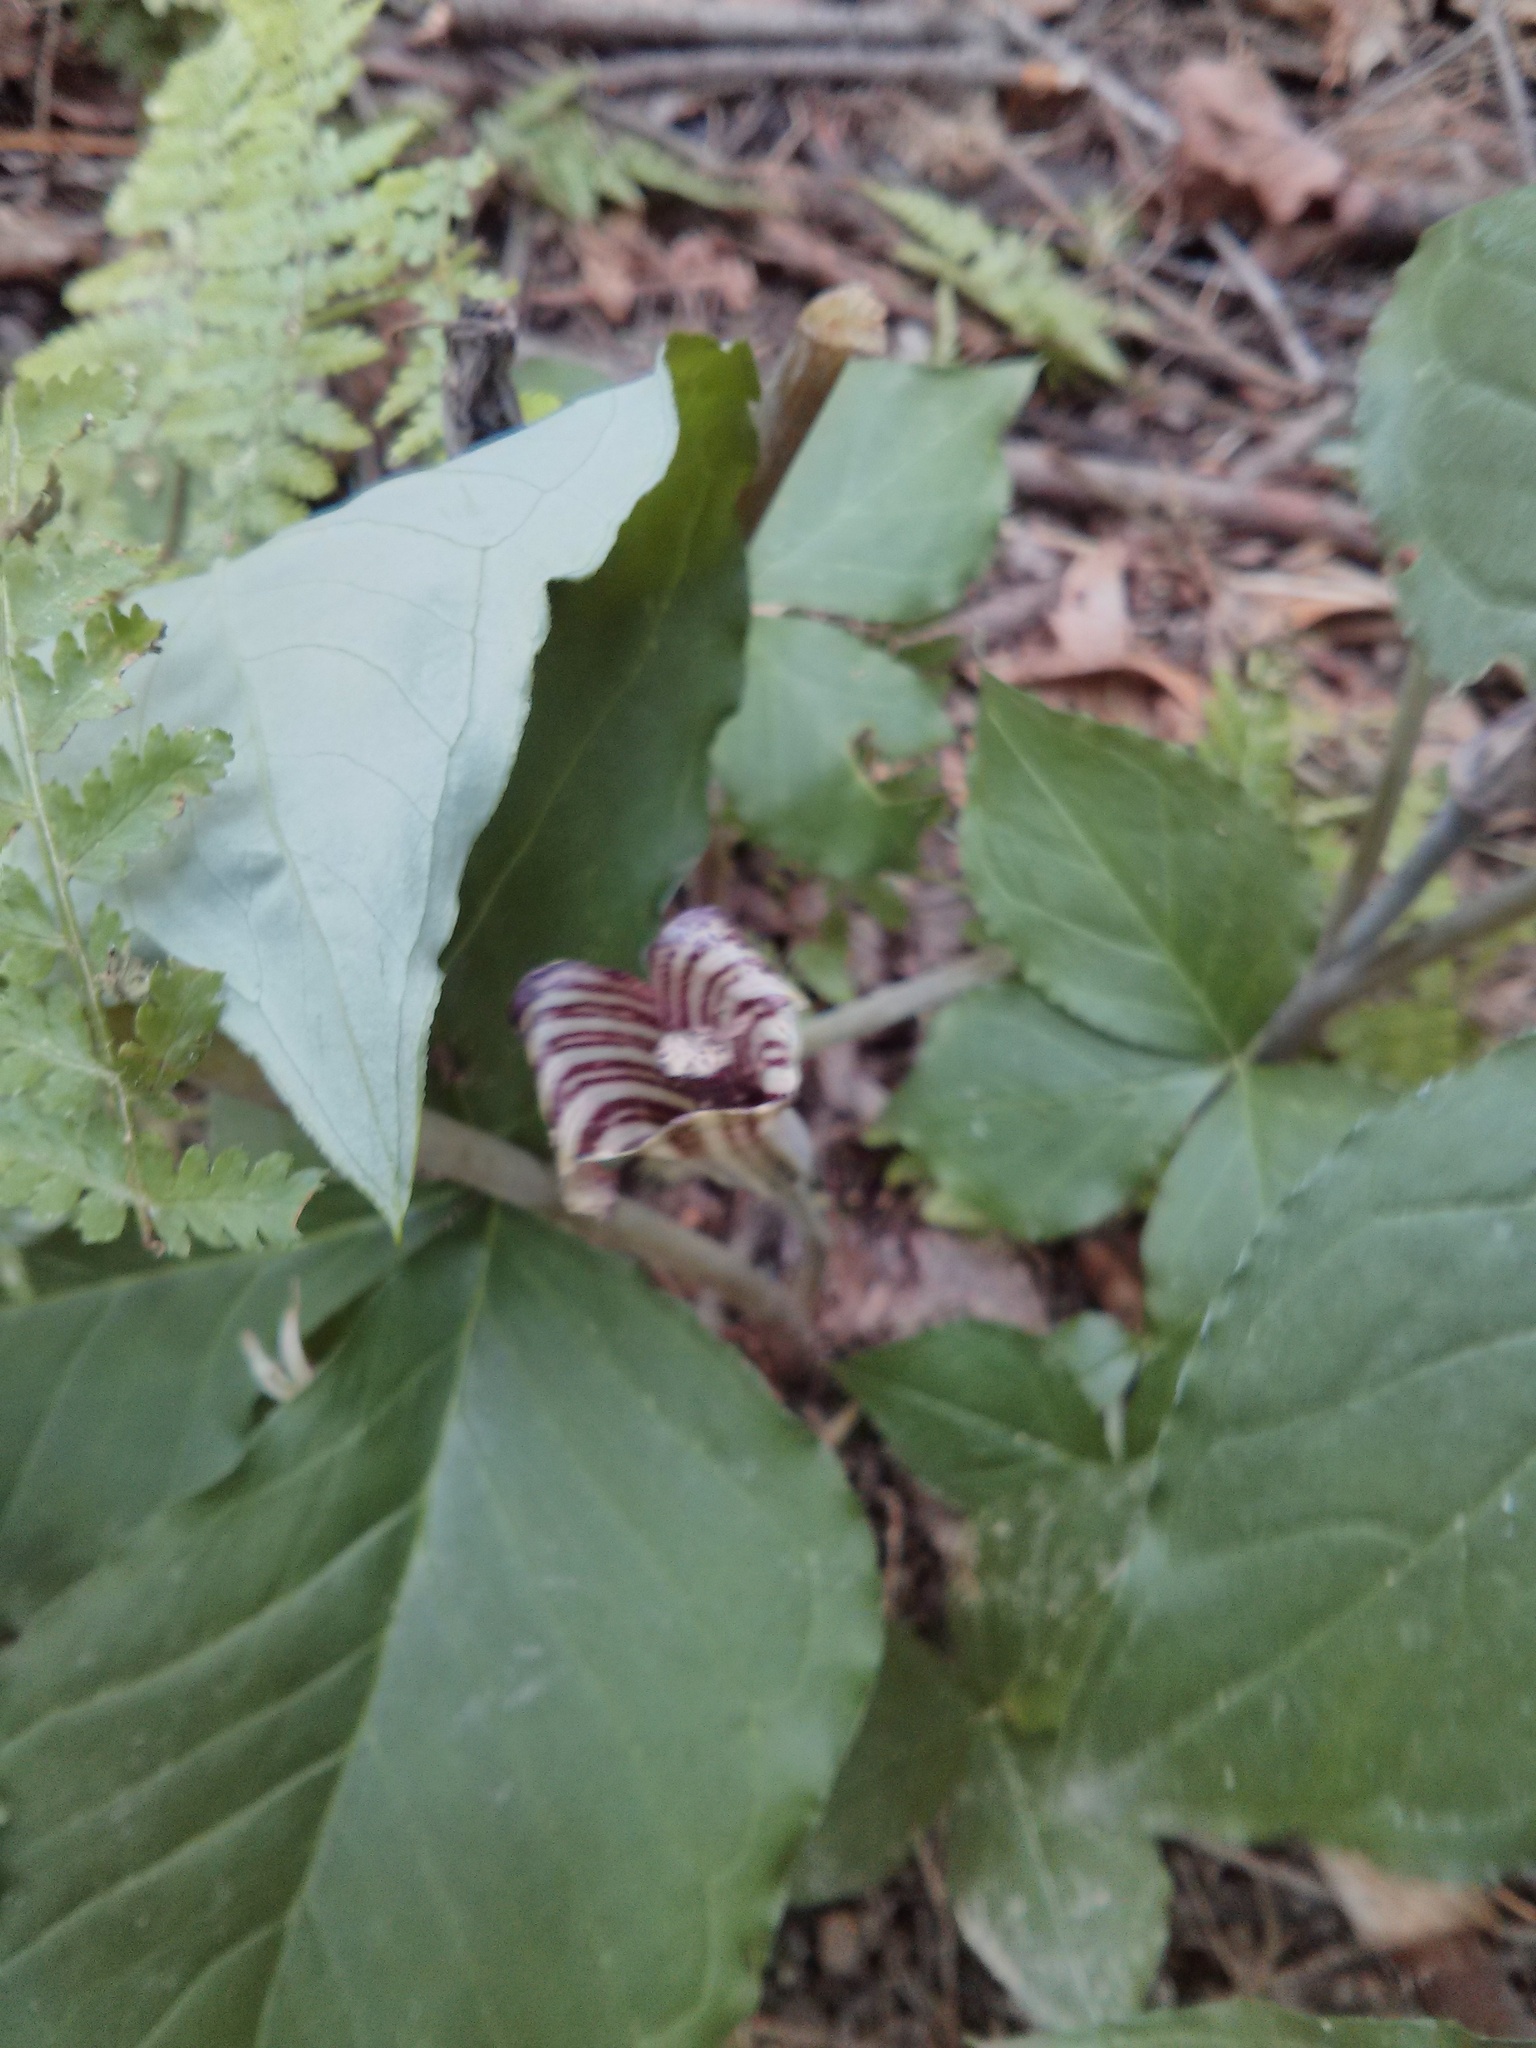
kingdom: Plantae
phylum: Tracheophyta
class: Liliopsida
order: Alismatales
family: Araceae
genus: Arisaema
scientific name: Arisaema triphyllum
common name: Jack-in-the-pulpit
